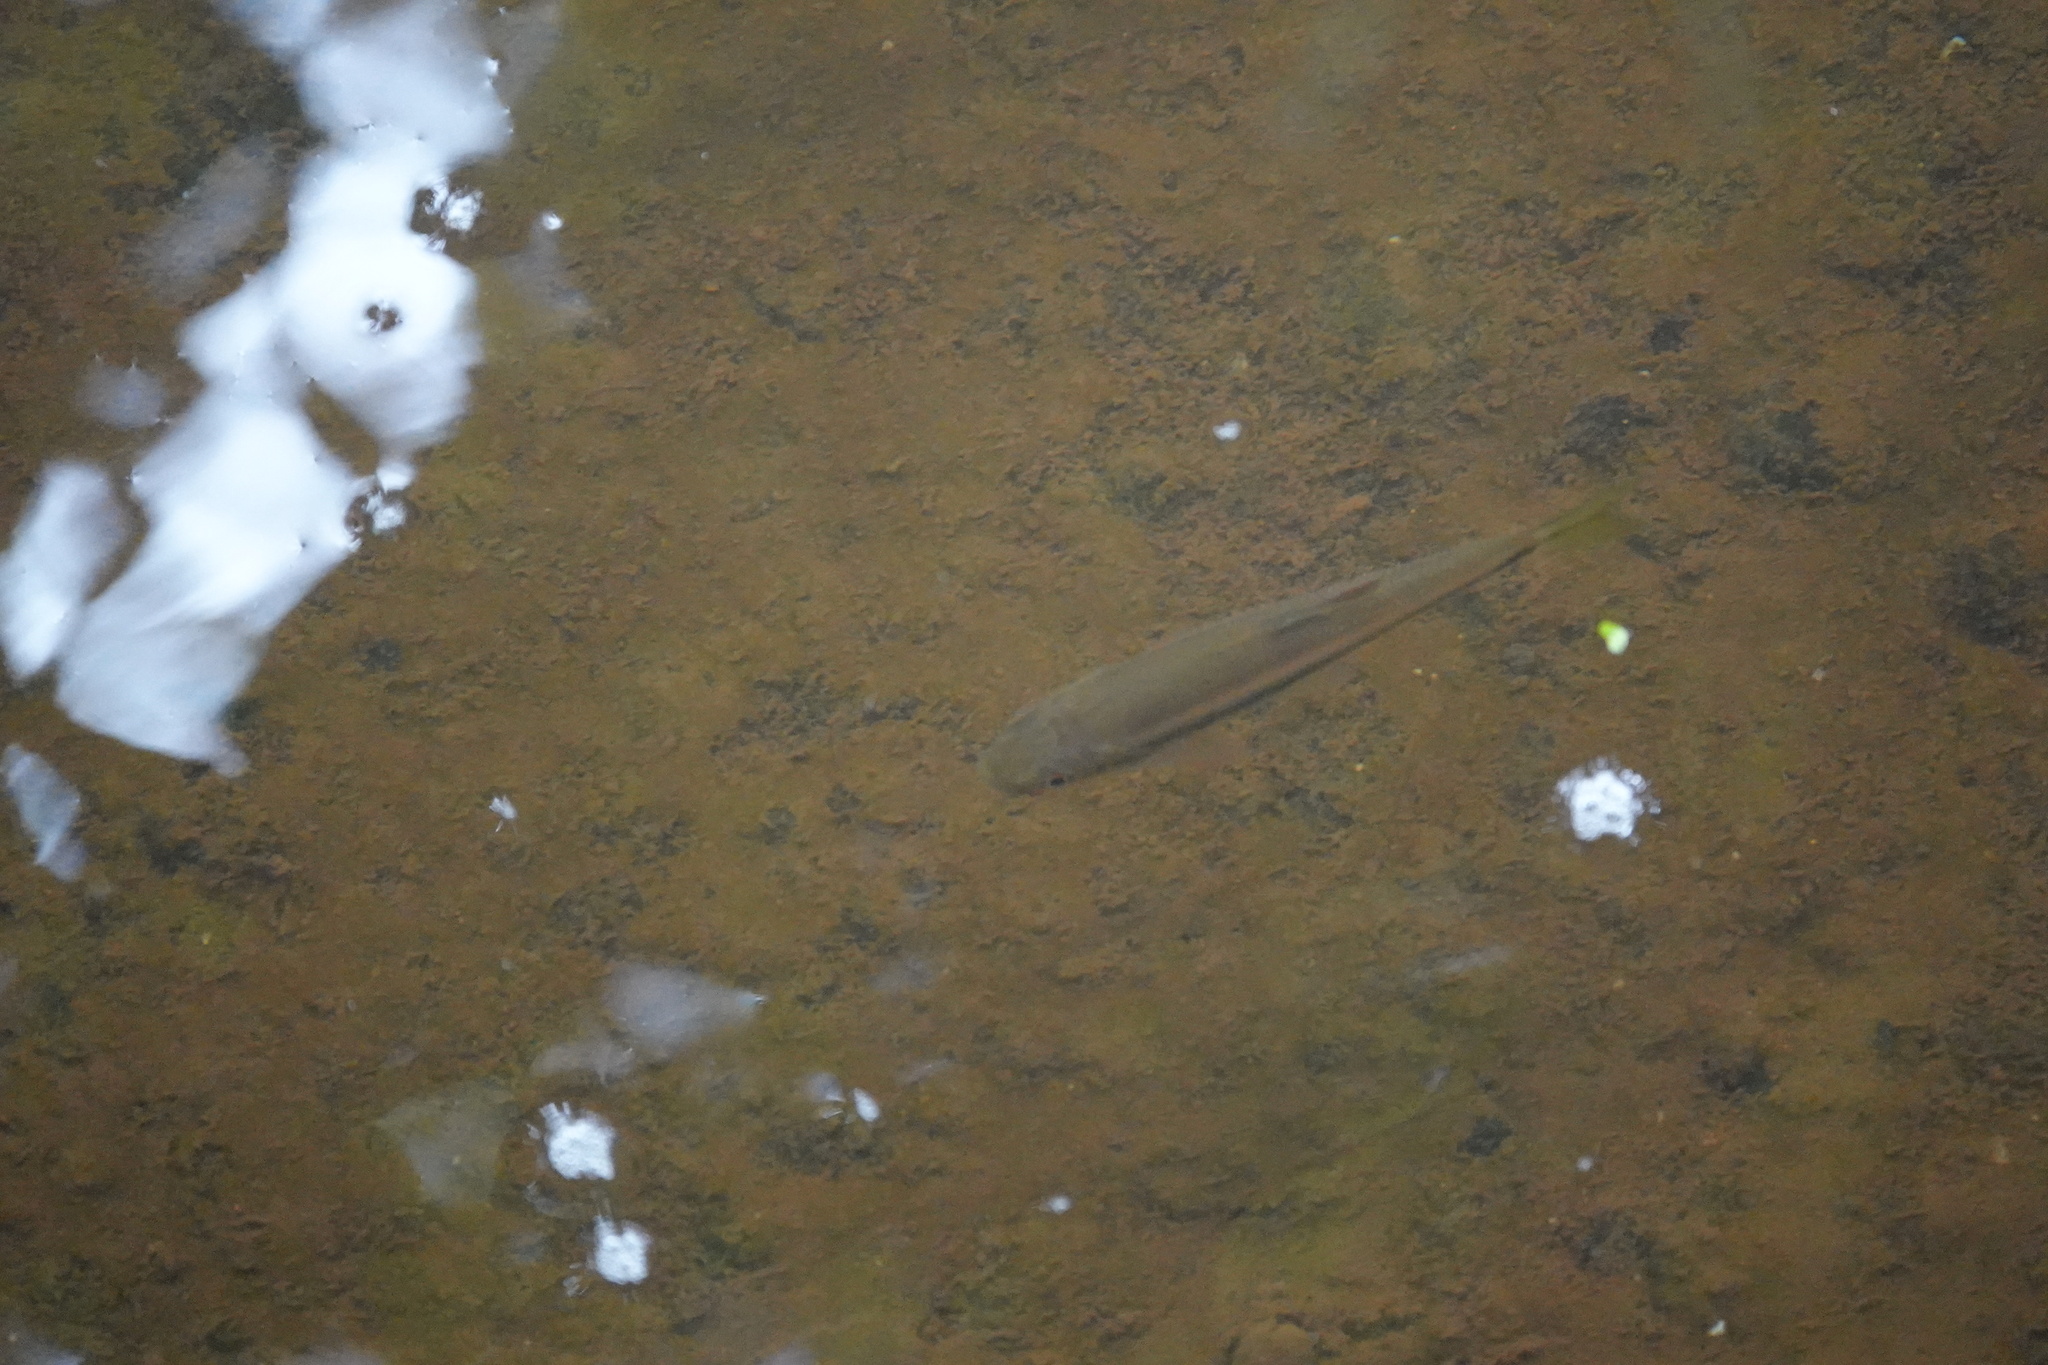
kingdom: Animalia
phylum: Chordata
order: Cypriniformes
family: Cyprinidae
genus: Candidia
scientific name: Candidia barbata
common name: Lake candidus dace
